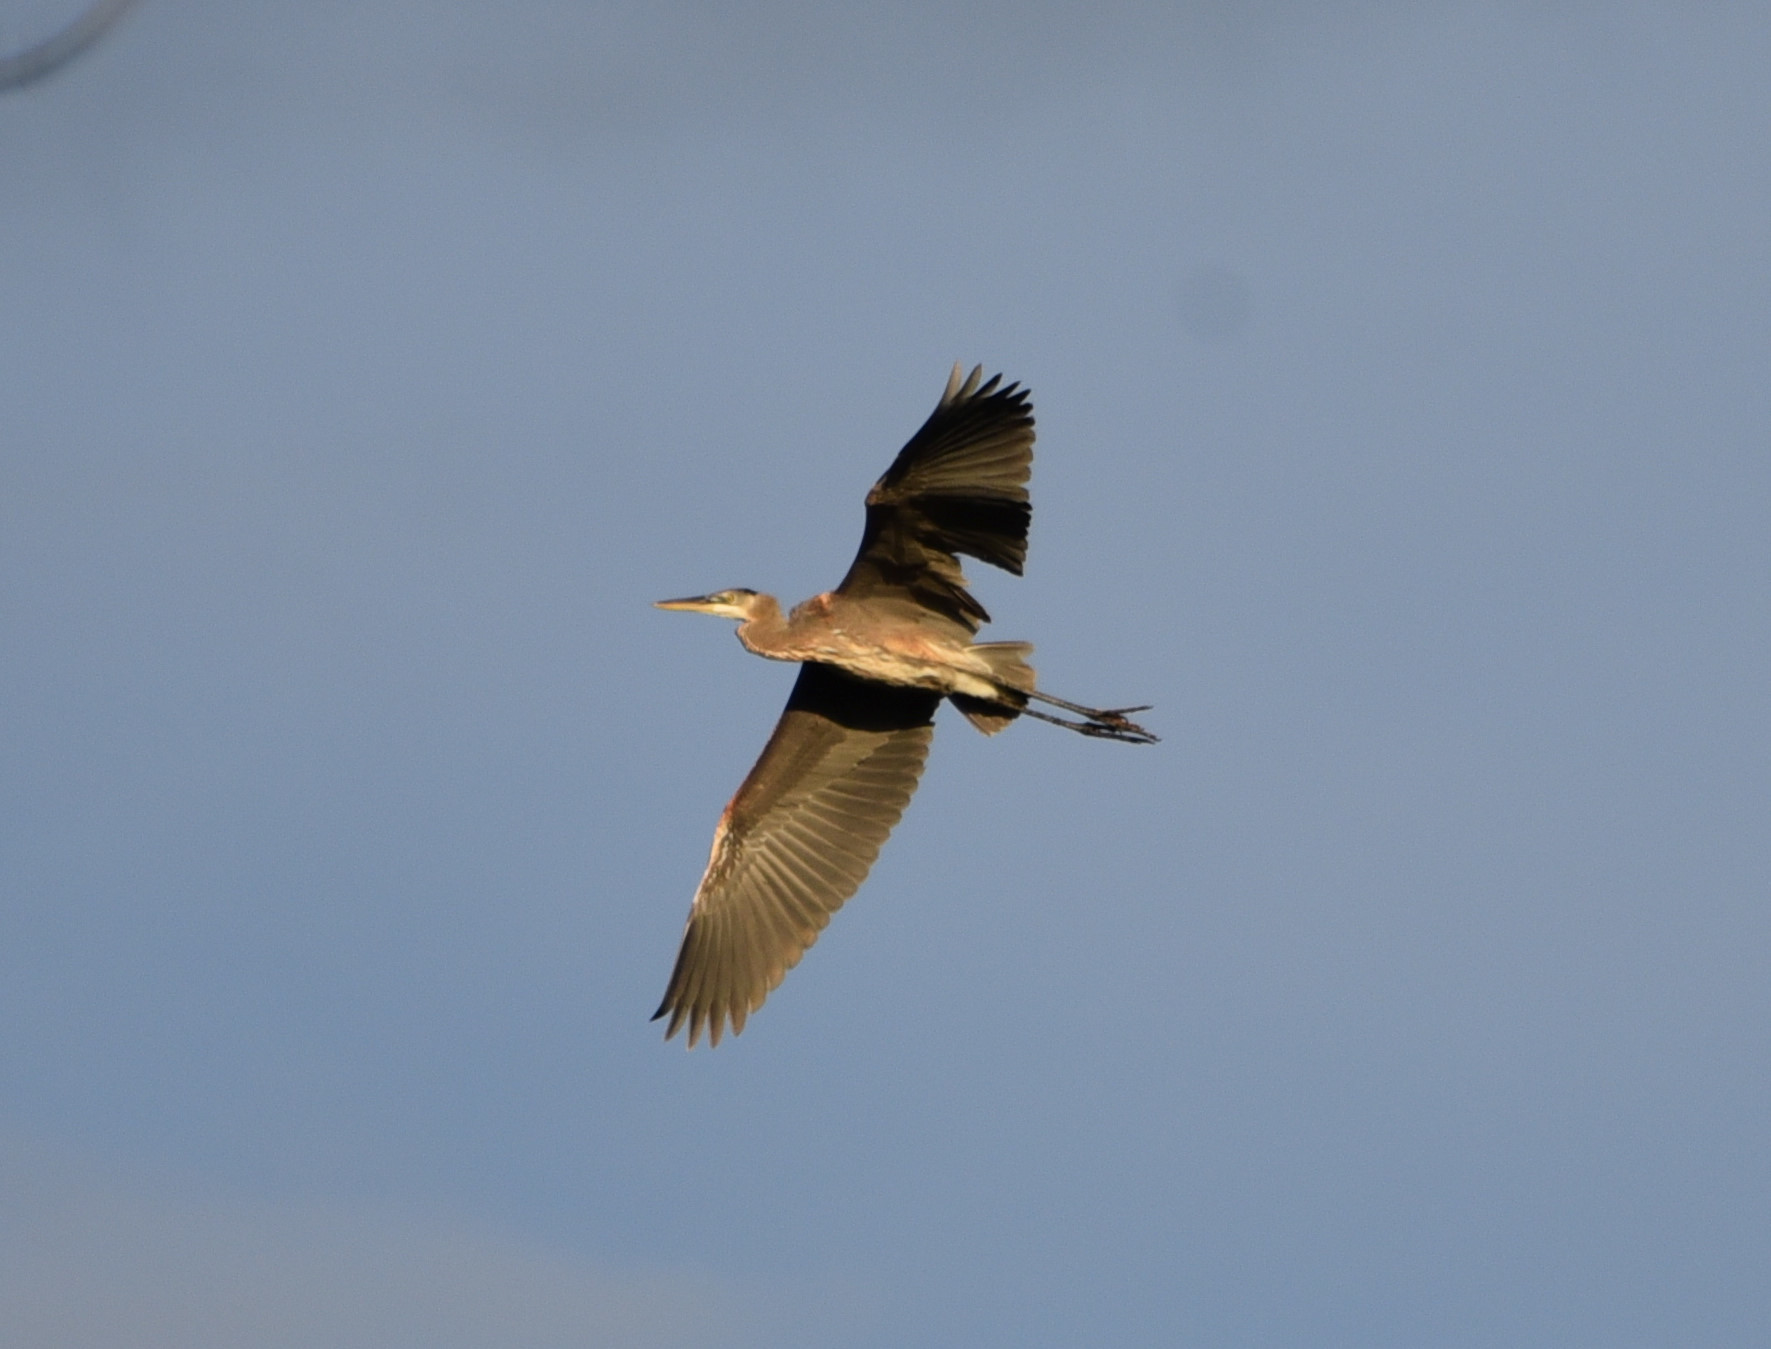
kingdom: Animalia
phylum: Chordata
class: Aves
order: Pelecaniformes
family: Ardeidae
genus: Ardea
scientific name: Ardea herodias
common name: Great blue heron
